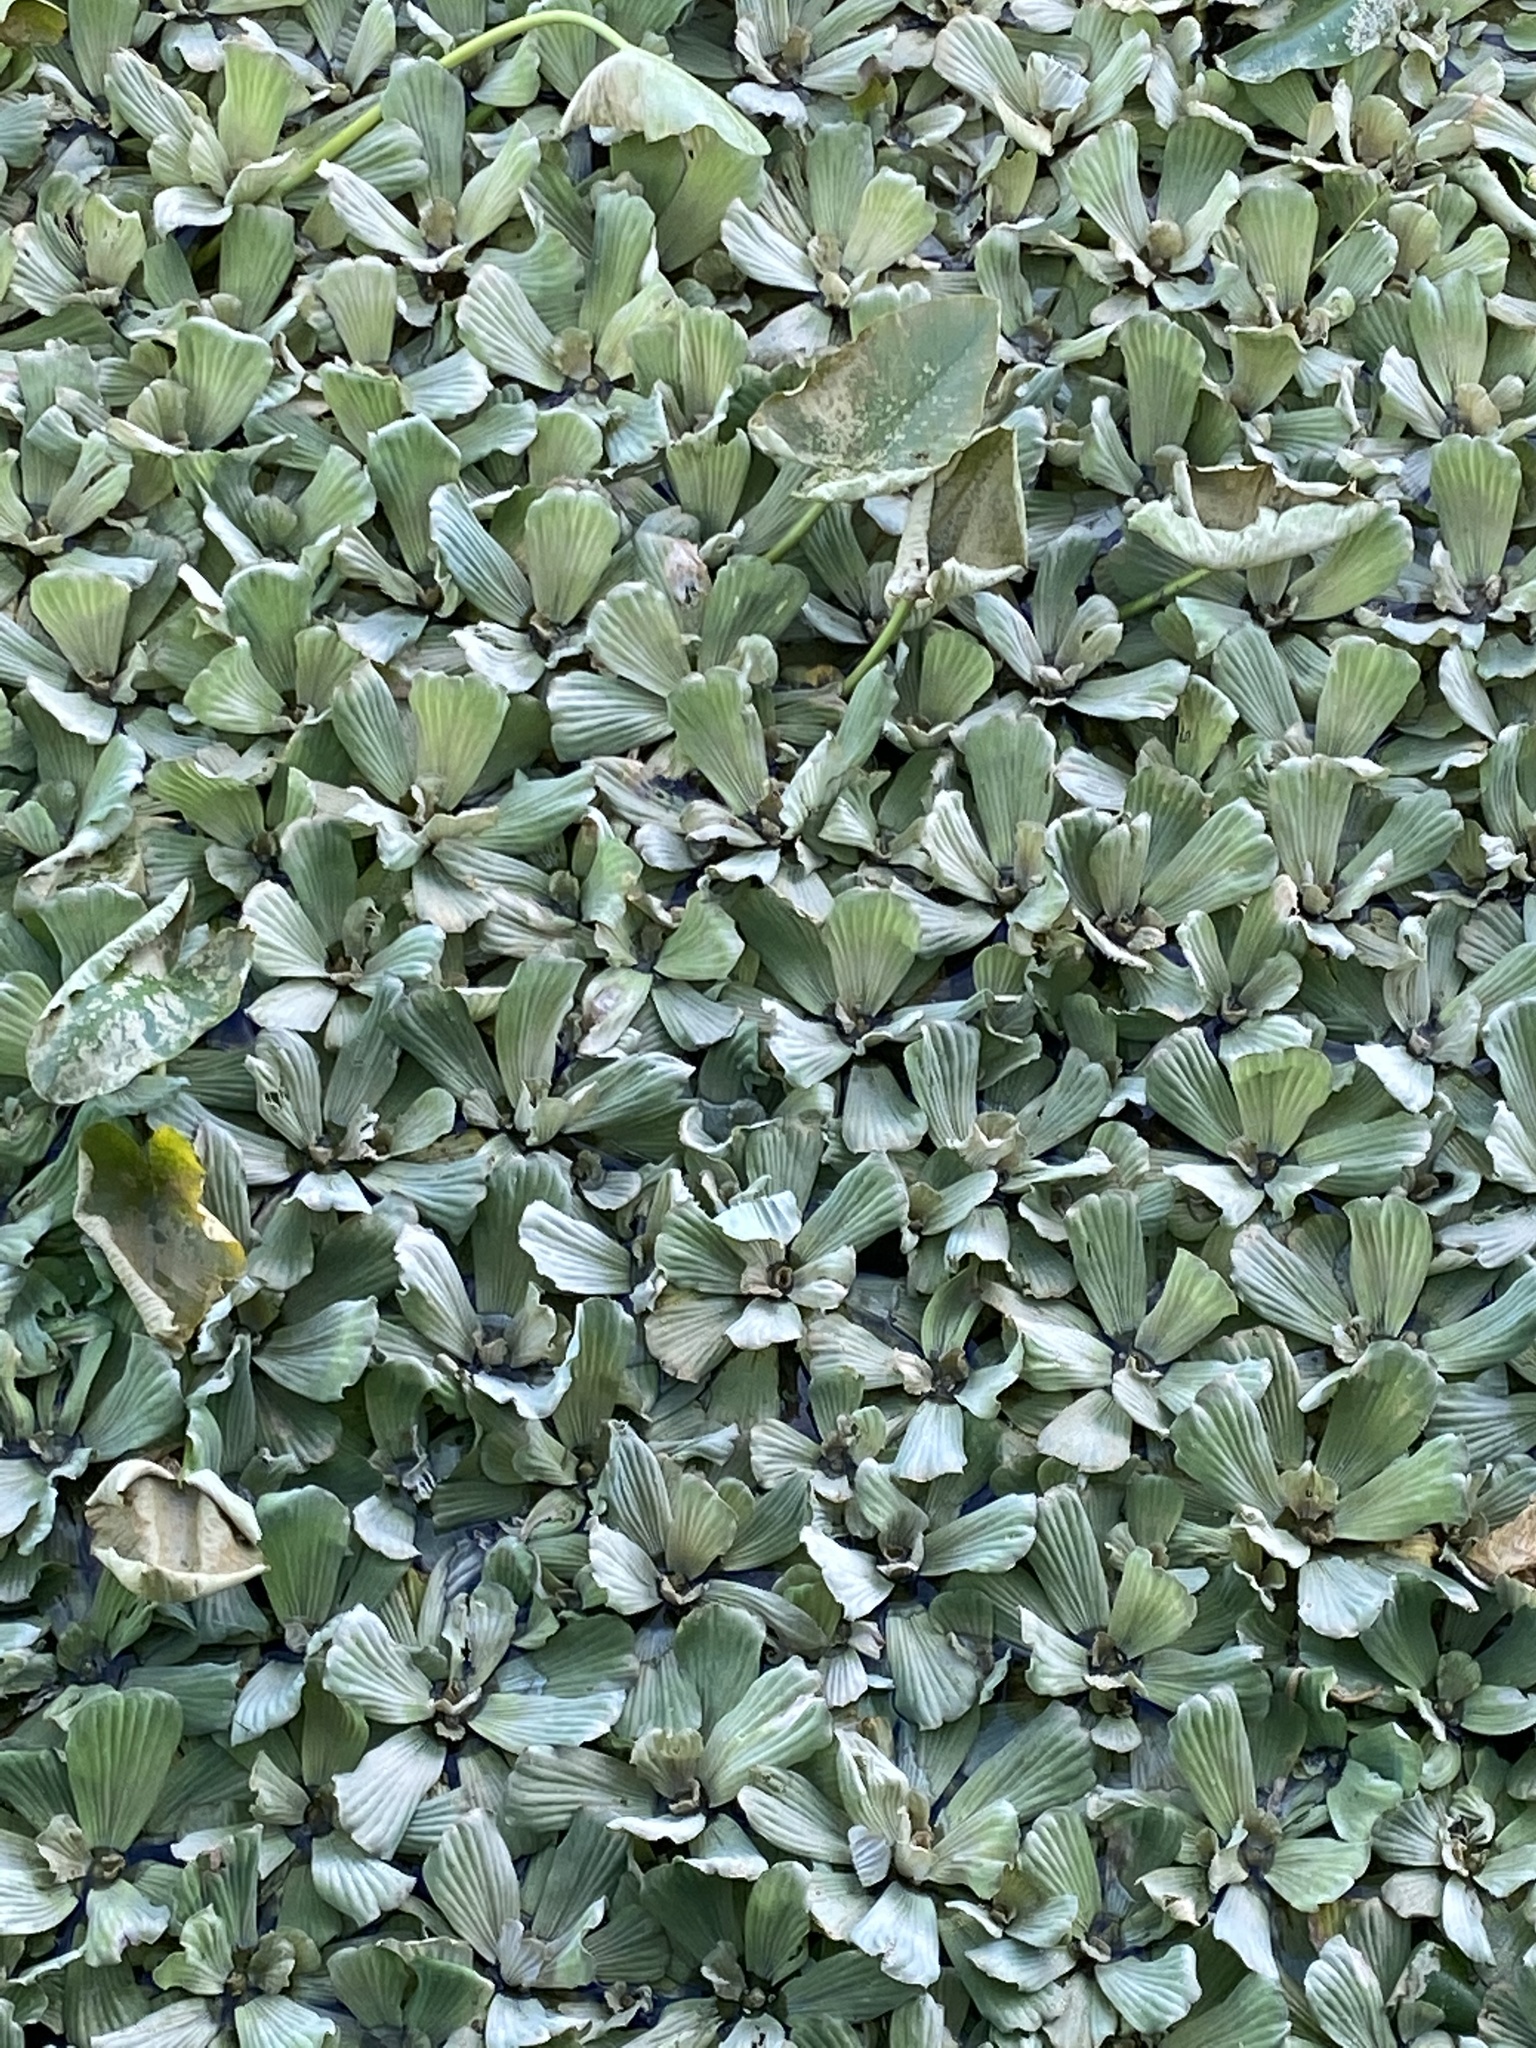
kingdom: Plantae
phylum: Tracheophyta
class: Liliopsida
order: Alismatales
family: Araceae
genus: Pistia
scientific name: Pistia stratiotes
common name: Water lettuce
